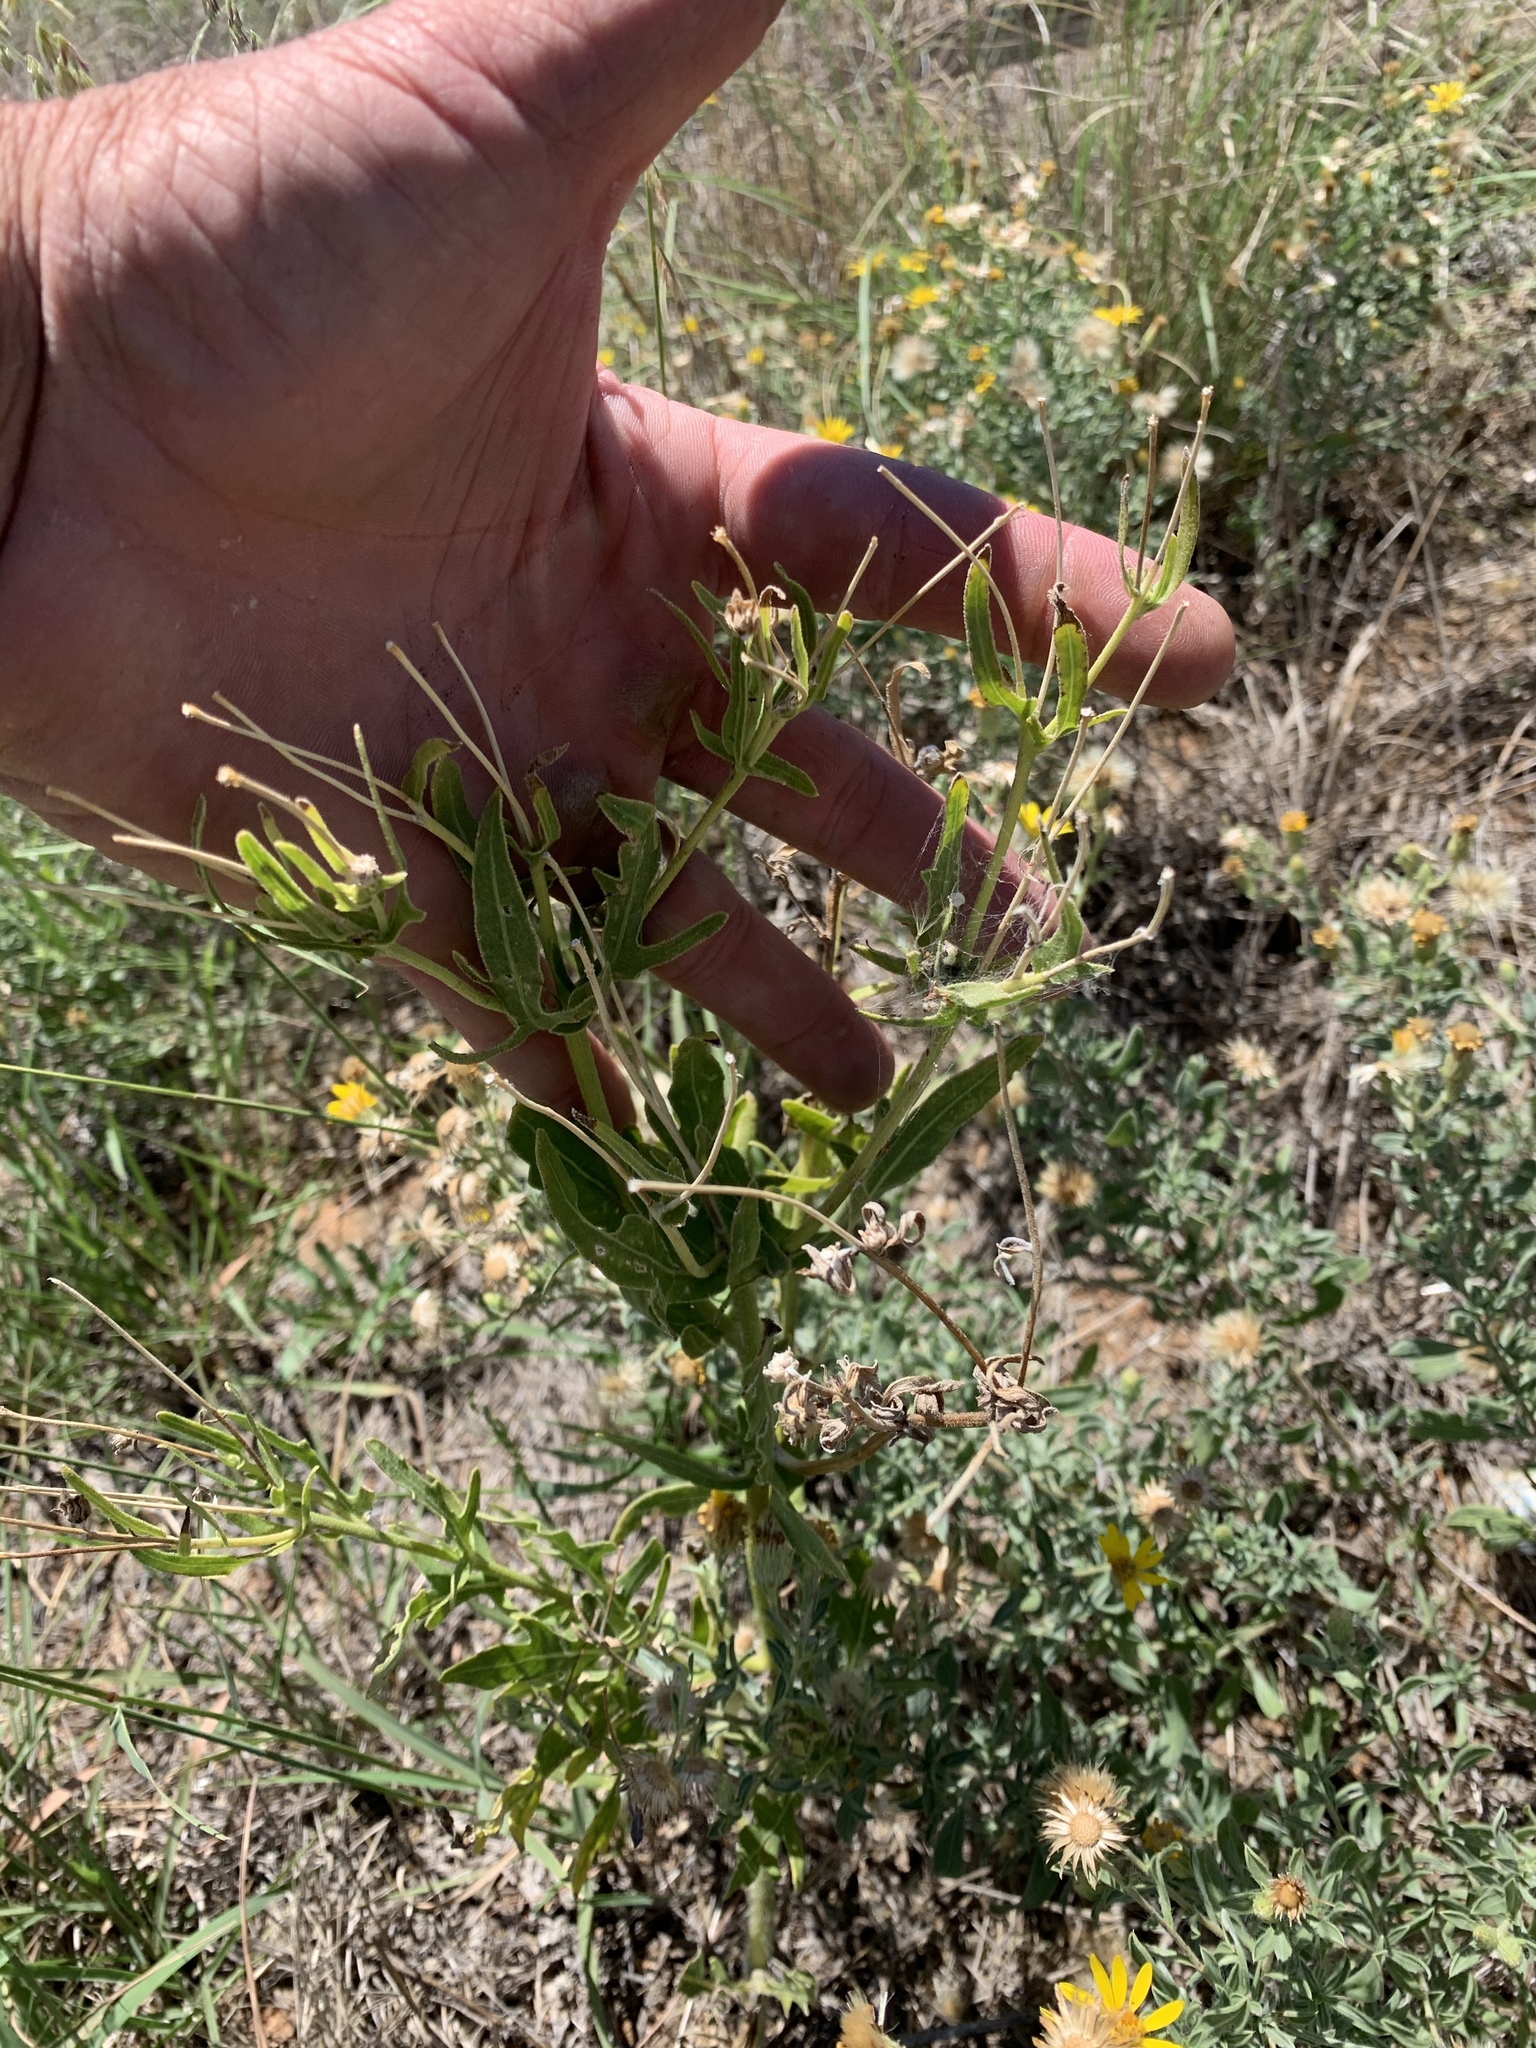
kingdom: Plantae
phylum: Tracheophyta
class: Magnoliopsida
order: Brassicales
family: Cleomaceae
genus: Polanisia
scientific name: Polanisia dodecandra
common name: Clammyweed
